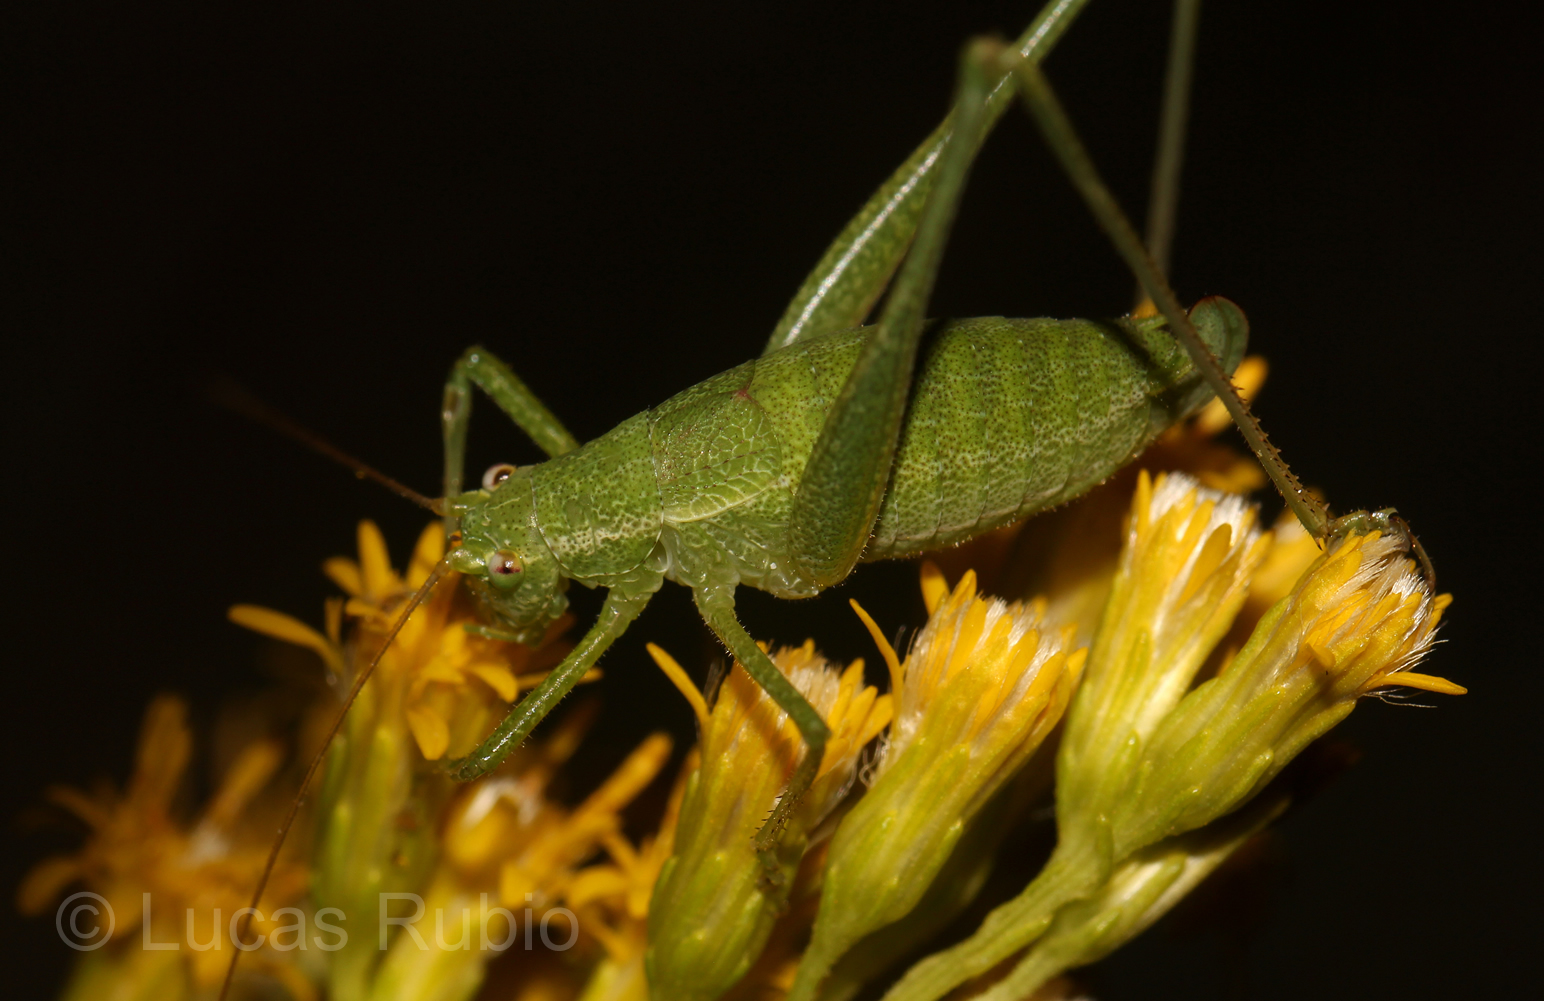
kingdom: Animalia
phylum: Arthropoda
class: Insecta
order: Orthoptera
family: Tettigoniidae
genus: Anisophya
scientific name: Anisophya punctinervis
